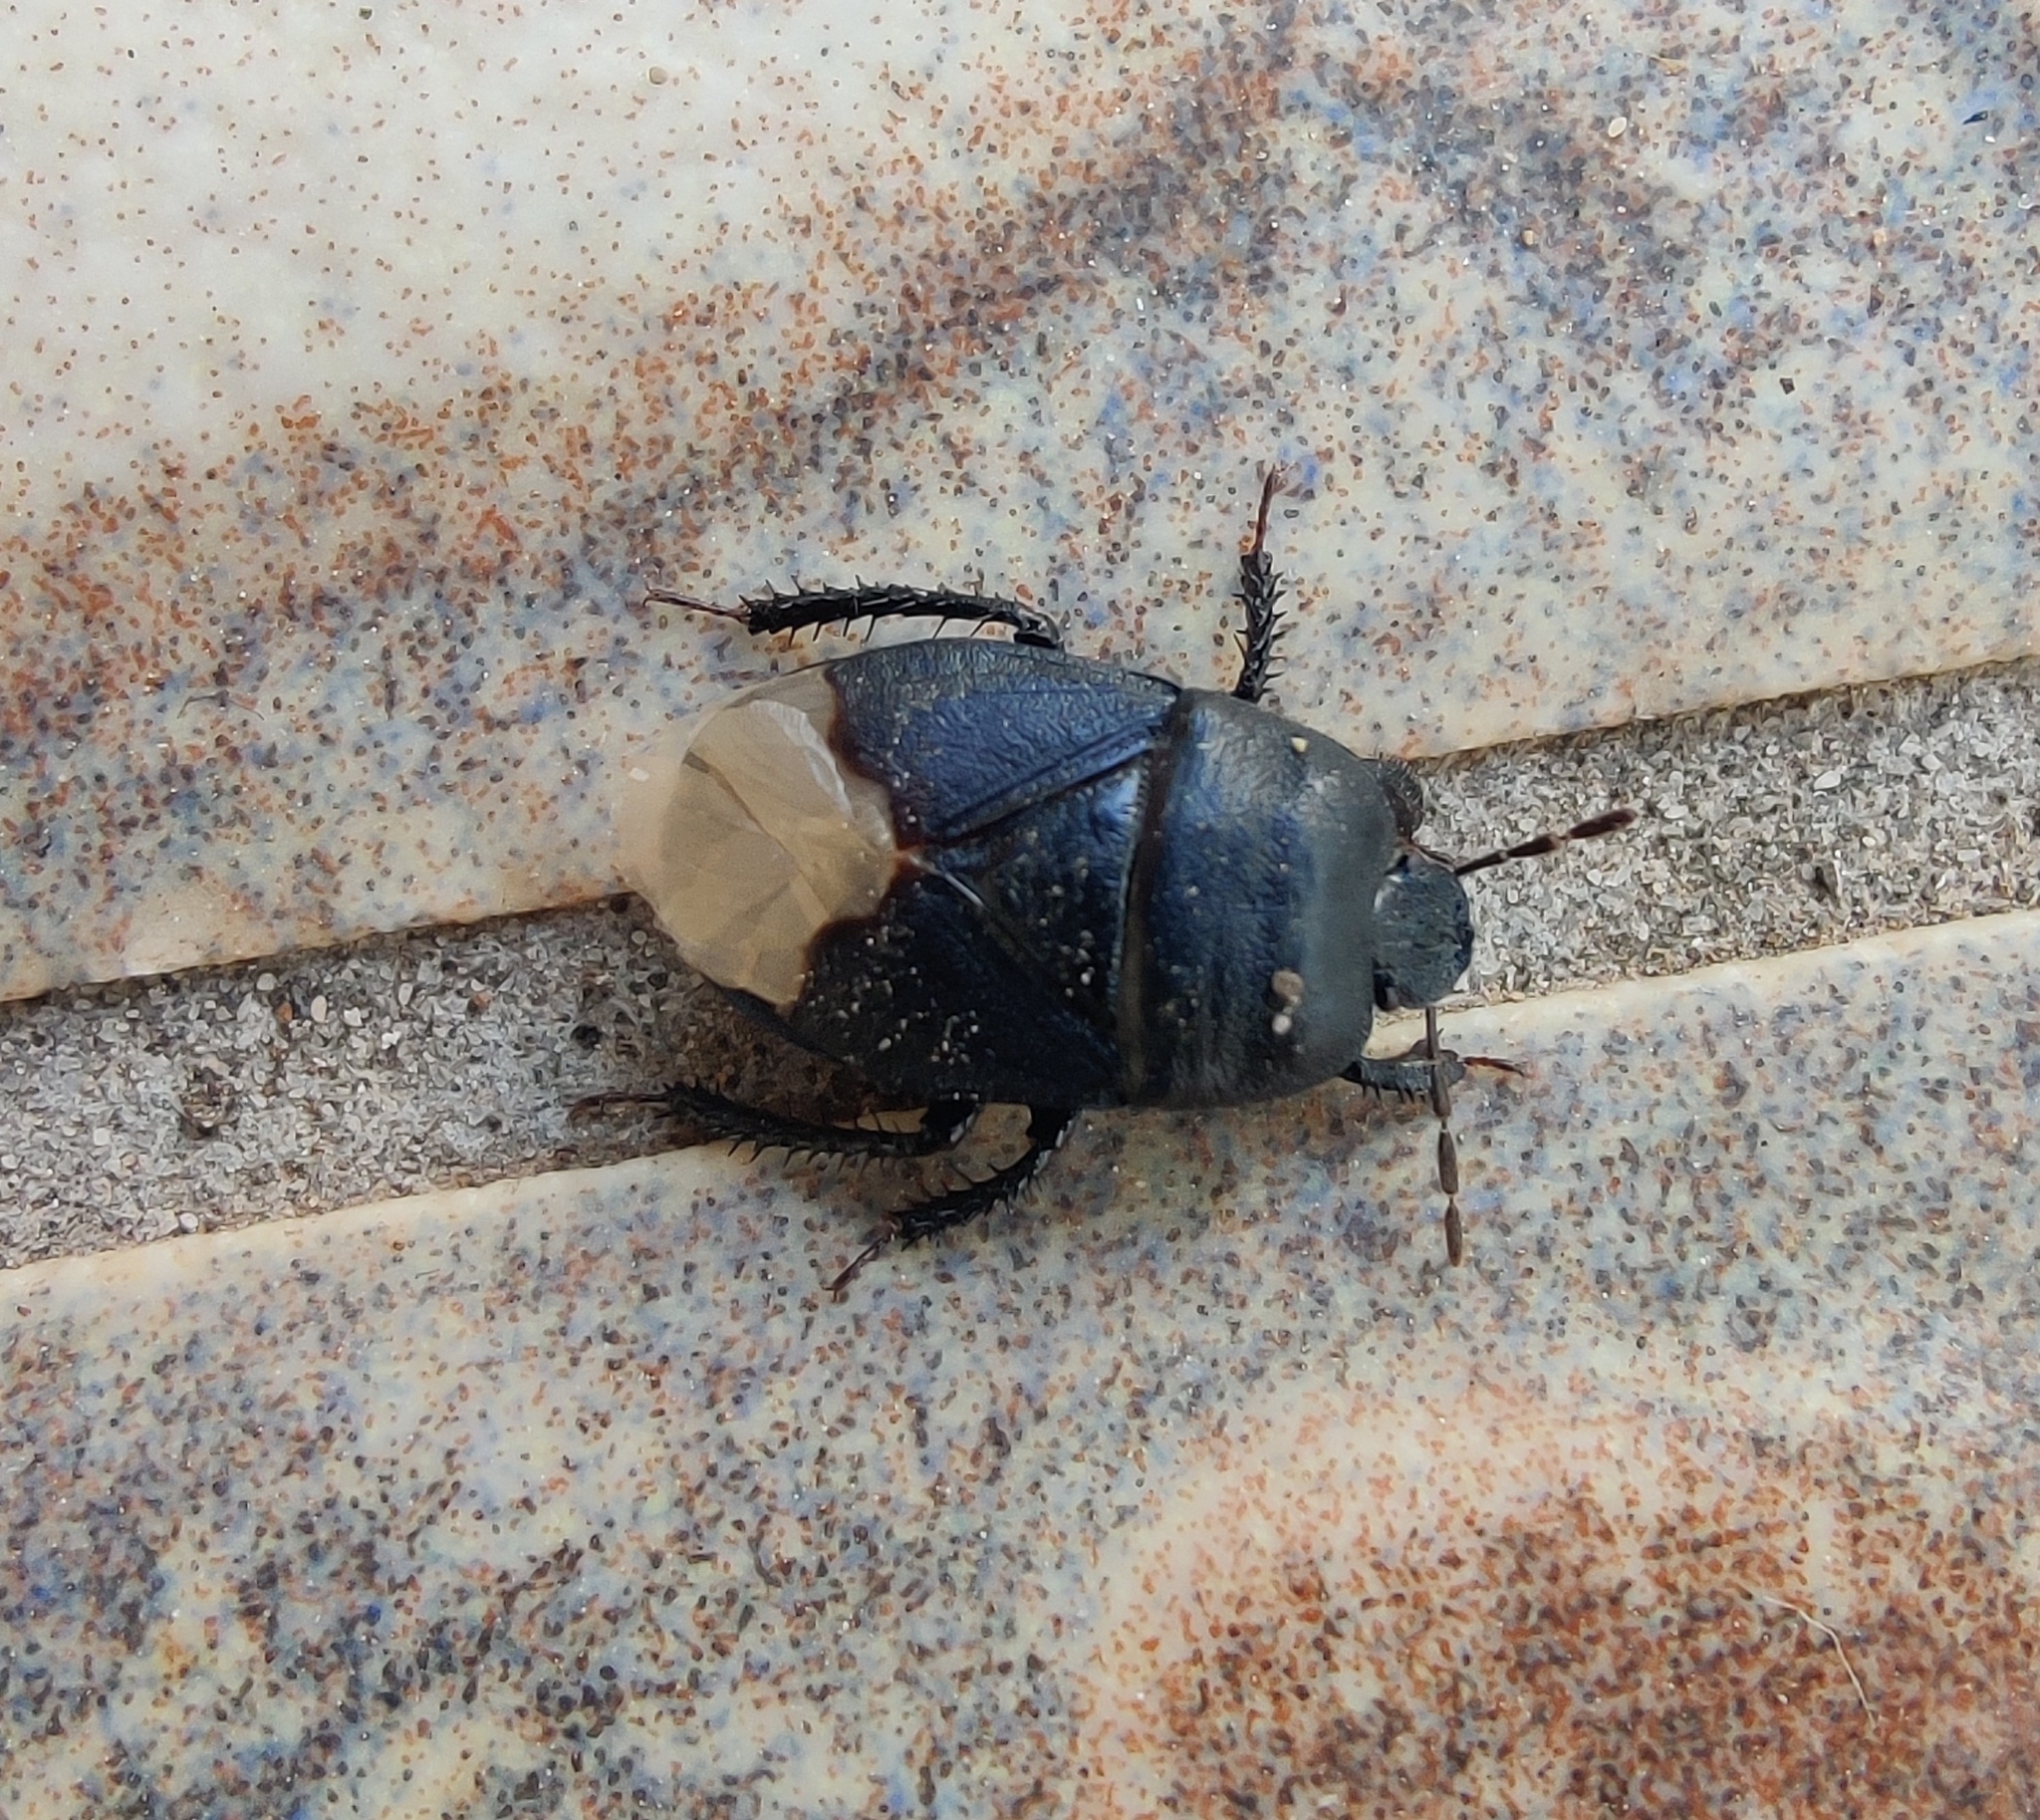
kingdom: Animalia
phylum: Arthropoda
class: Insecta
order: Hemiptera
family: Cydnidae
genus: Cydnus
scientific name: Cydnus aterrimus
